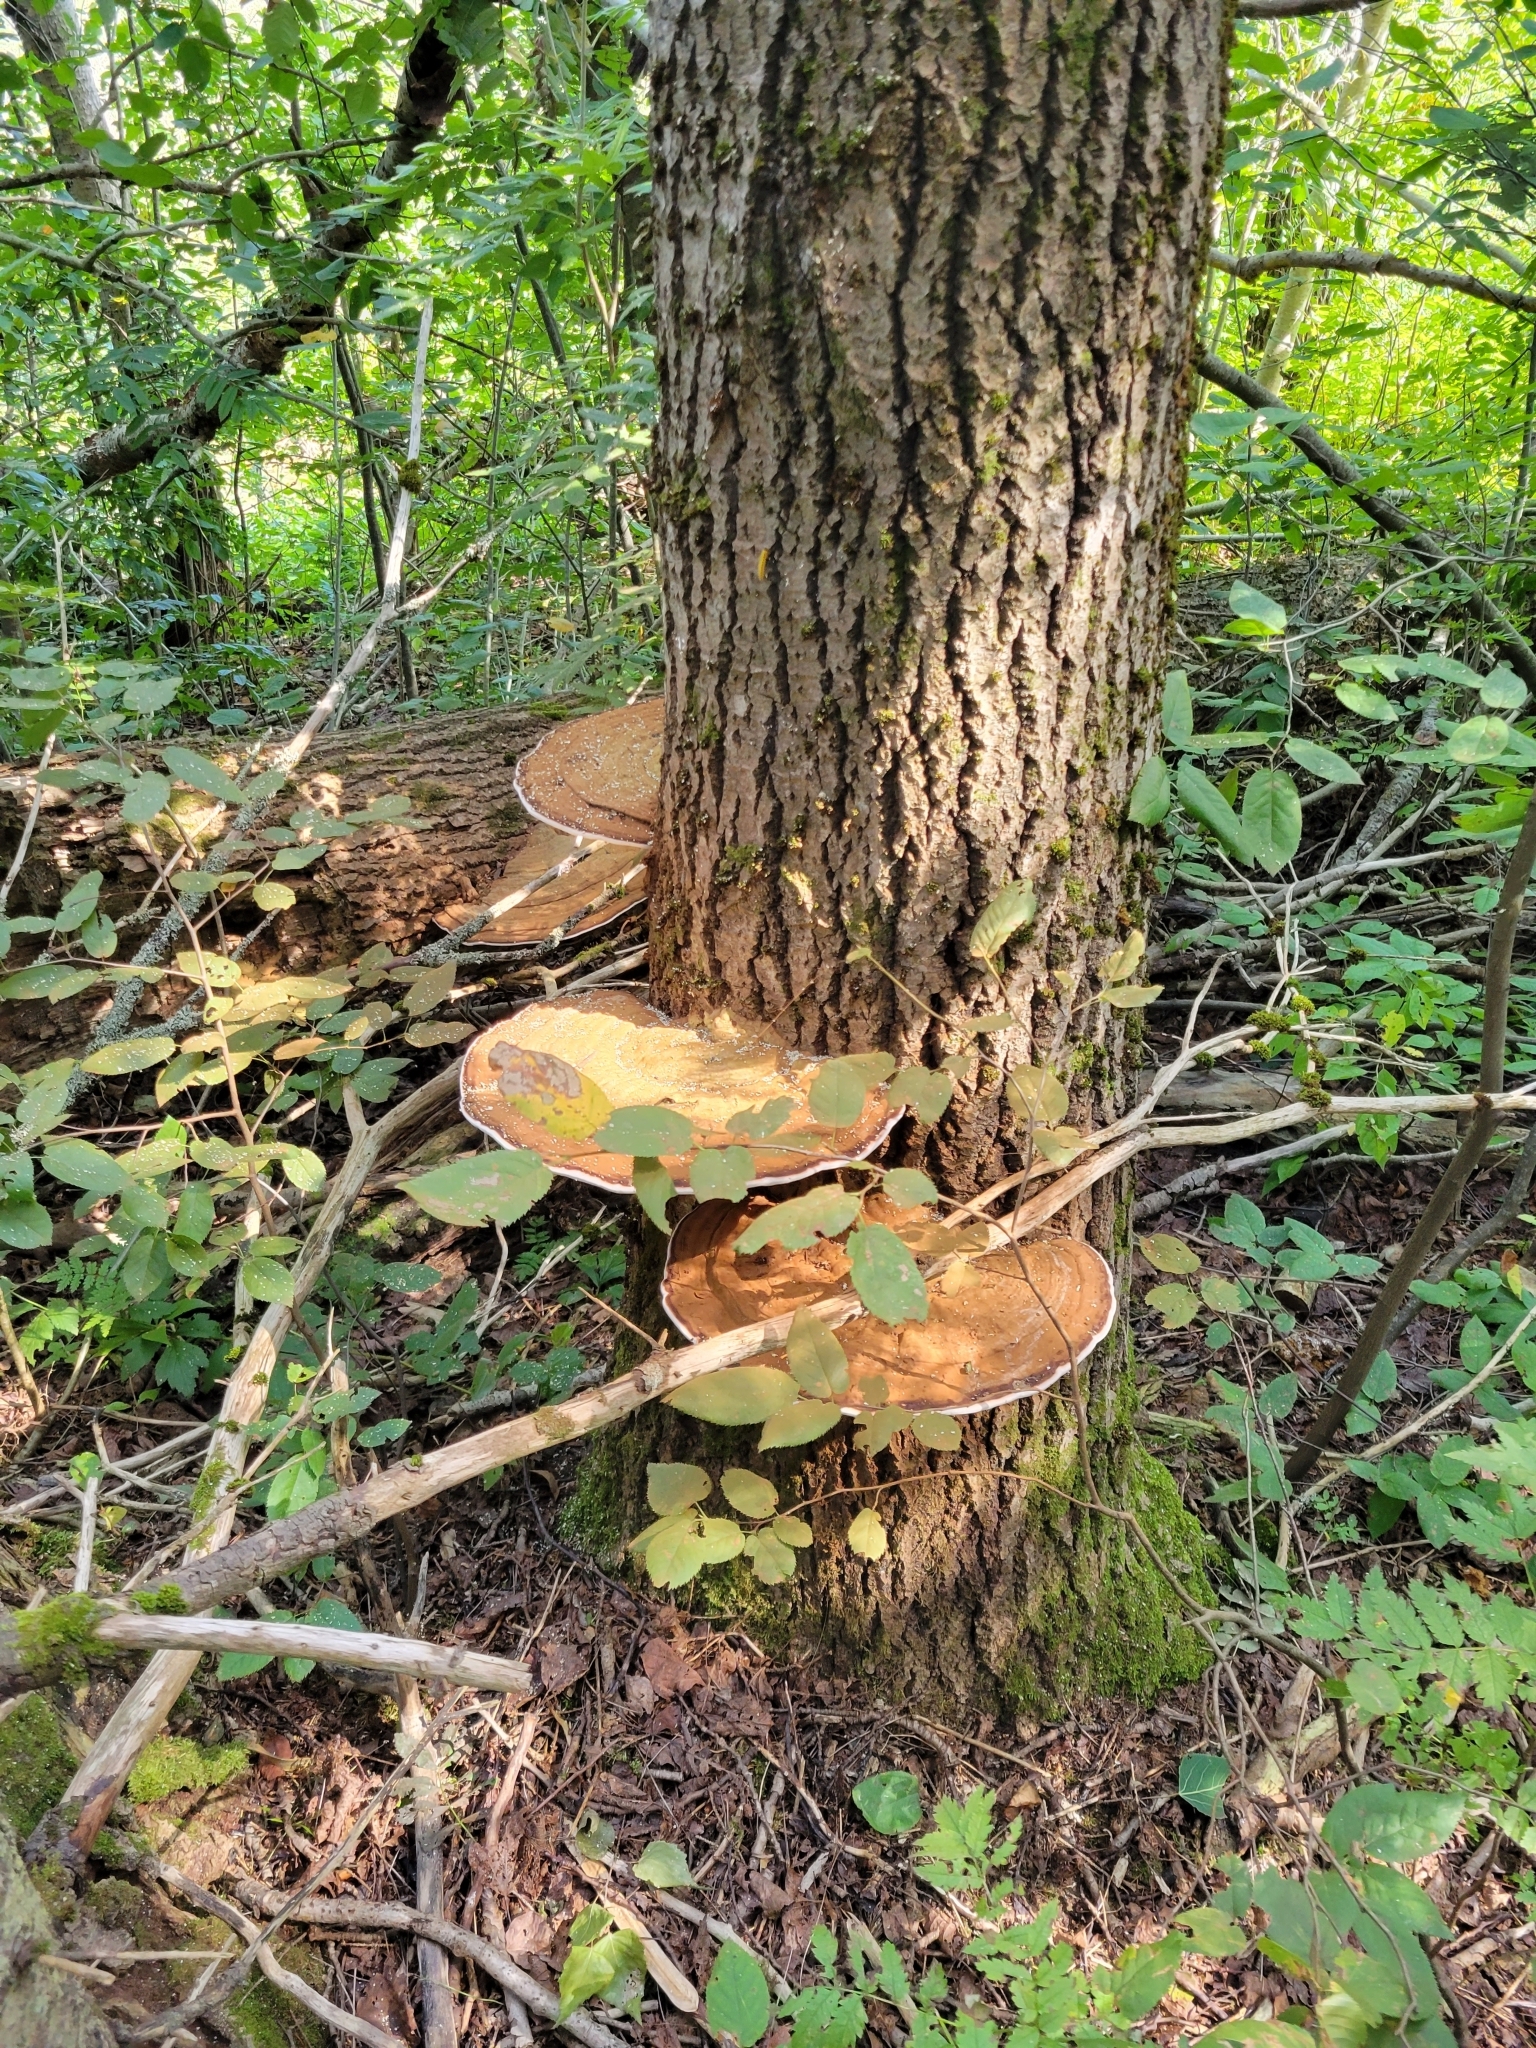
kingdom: Fungi
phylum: Basidiomycota
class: Agaricomycetes
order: Polyporales
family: Polyporaceae
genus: Ganoderma
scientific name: Ganoderma applanatum
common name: Artist's bracket
